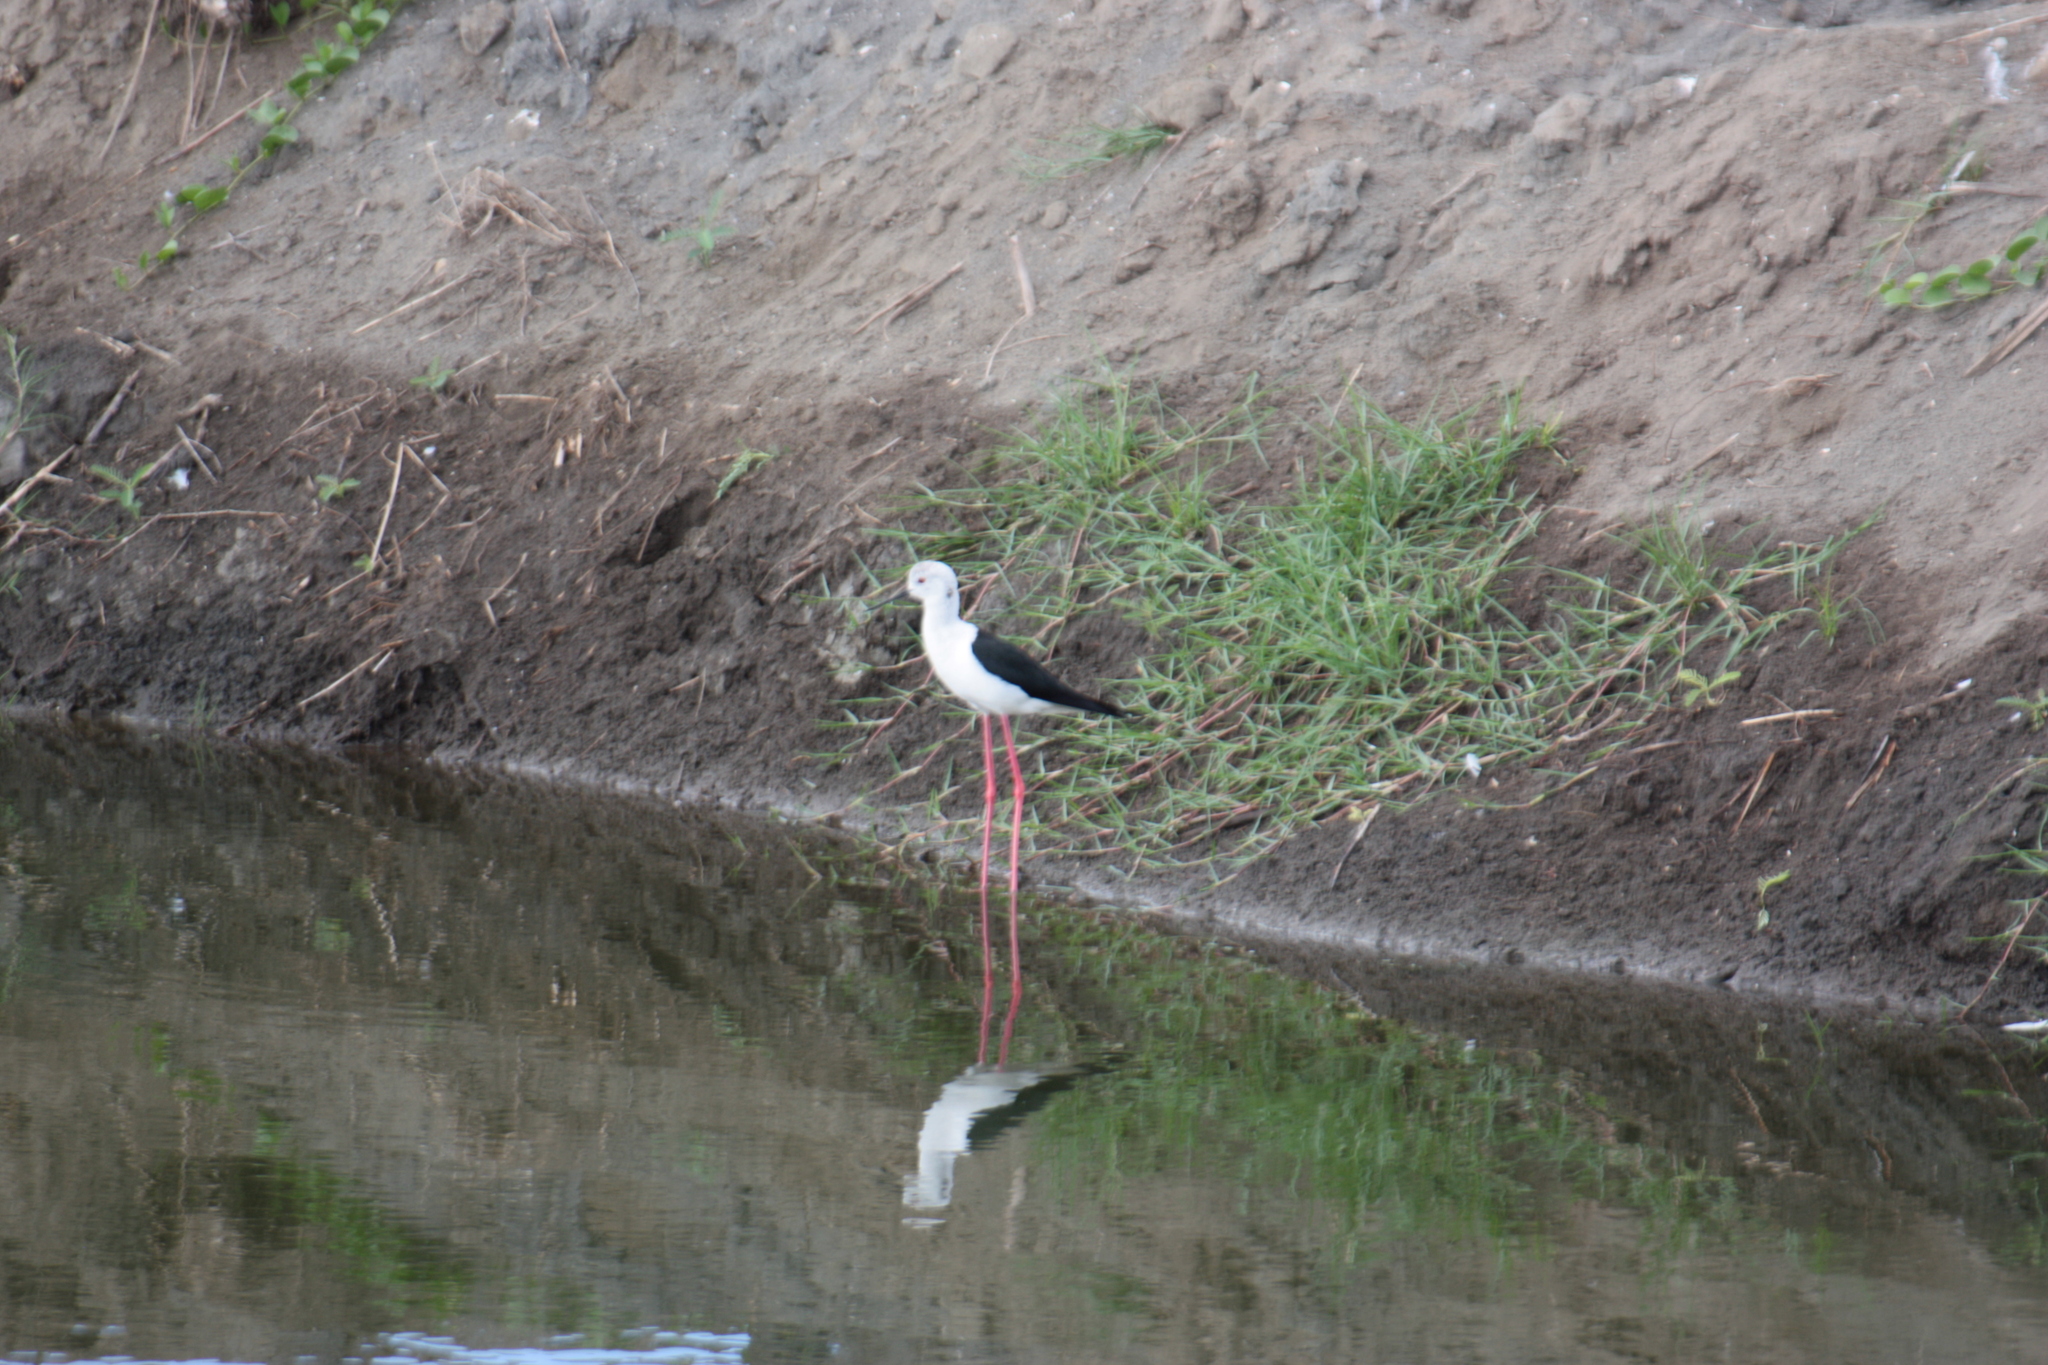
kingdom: Animalia
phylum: Chordata
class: Aves
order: Charadriiformes
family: Recurvirostridae
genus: Himantopus
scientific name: Himantopus himantopus
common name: Black-winged stilt
